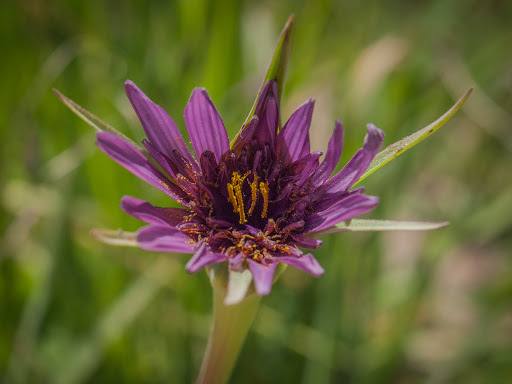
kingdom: Plantae
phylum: Tracheophyta
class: Magnoliopsida
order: Asterales
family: Asteraceae
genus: Tragopogon
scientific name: Tragopogon porrifolius
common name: Salsify
